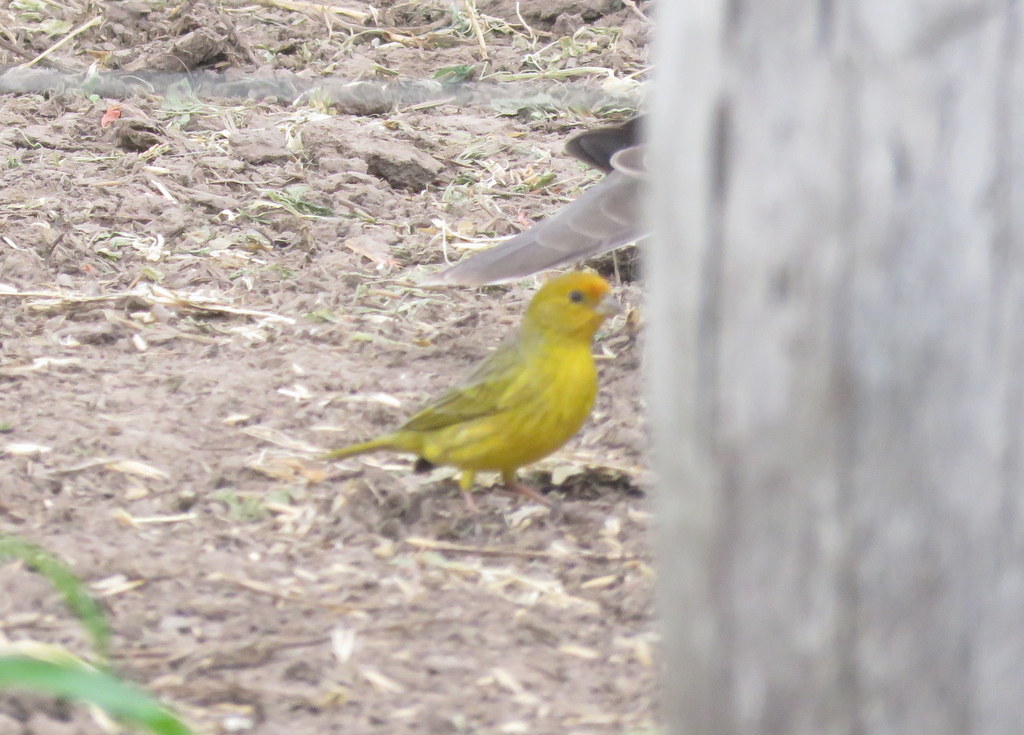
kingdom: Animalia
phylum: Chordata
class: Aves
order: Passeriformes
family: Thraupidae
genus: Sicalis
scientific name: Sicalis flaveola
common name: Saffron finch
